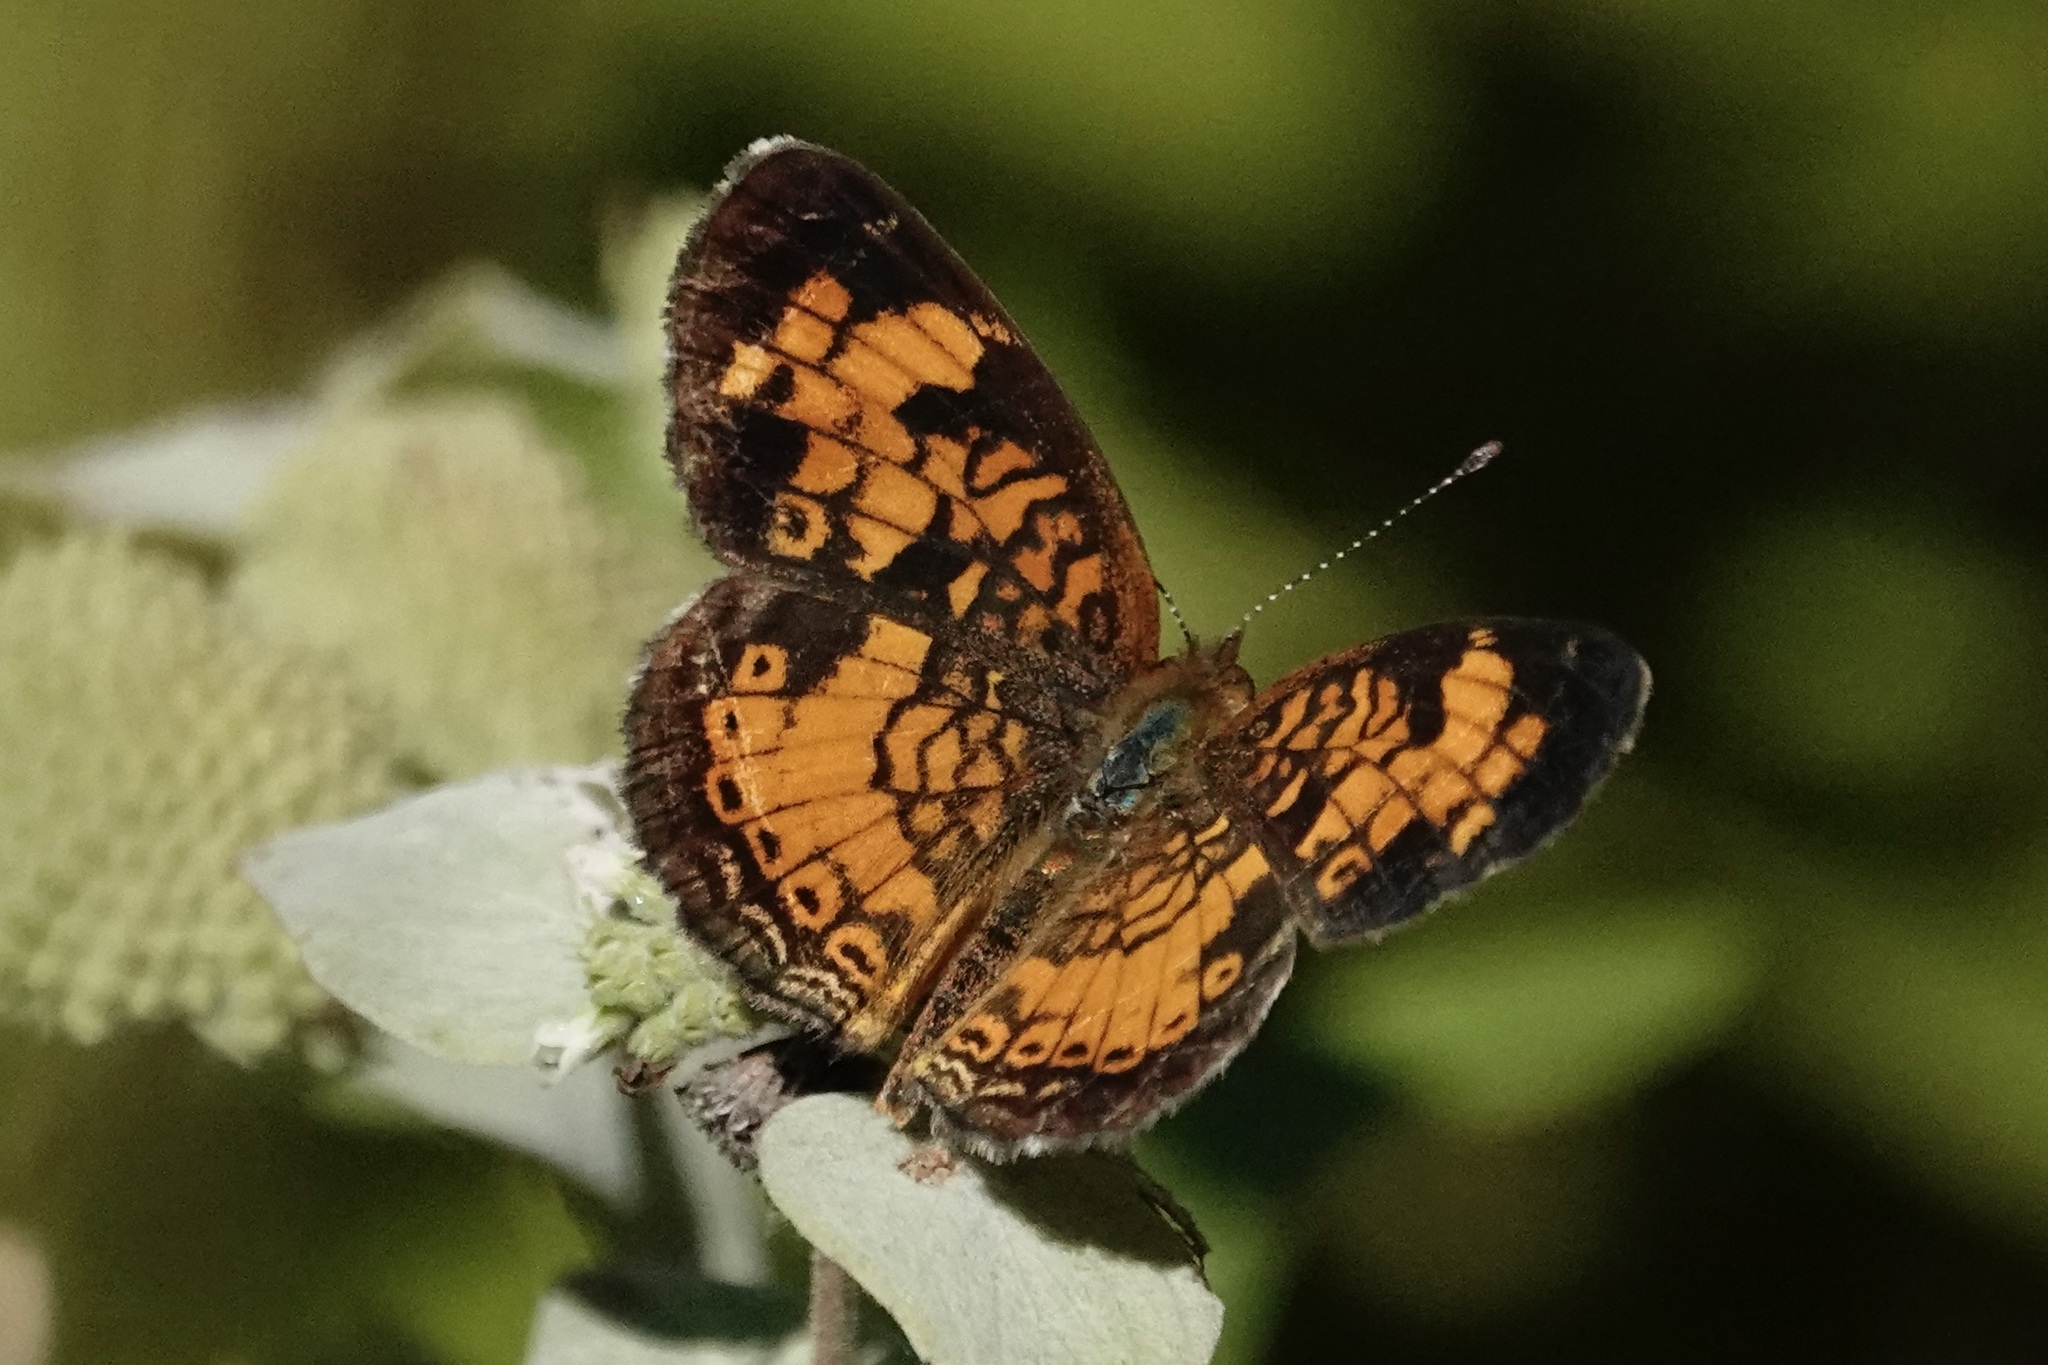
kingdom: Animalia
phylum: Arthropoda
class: Insecta
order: Lepidoptera
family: Nymphalidae
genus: Phyciodes
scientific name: Phyciodes tharos
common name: Pearl crescent
